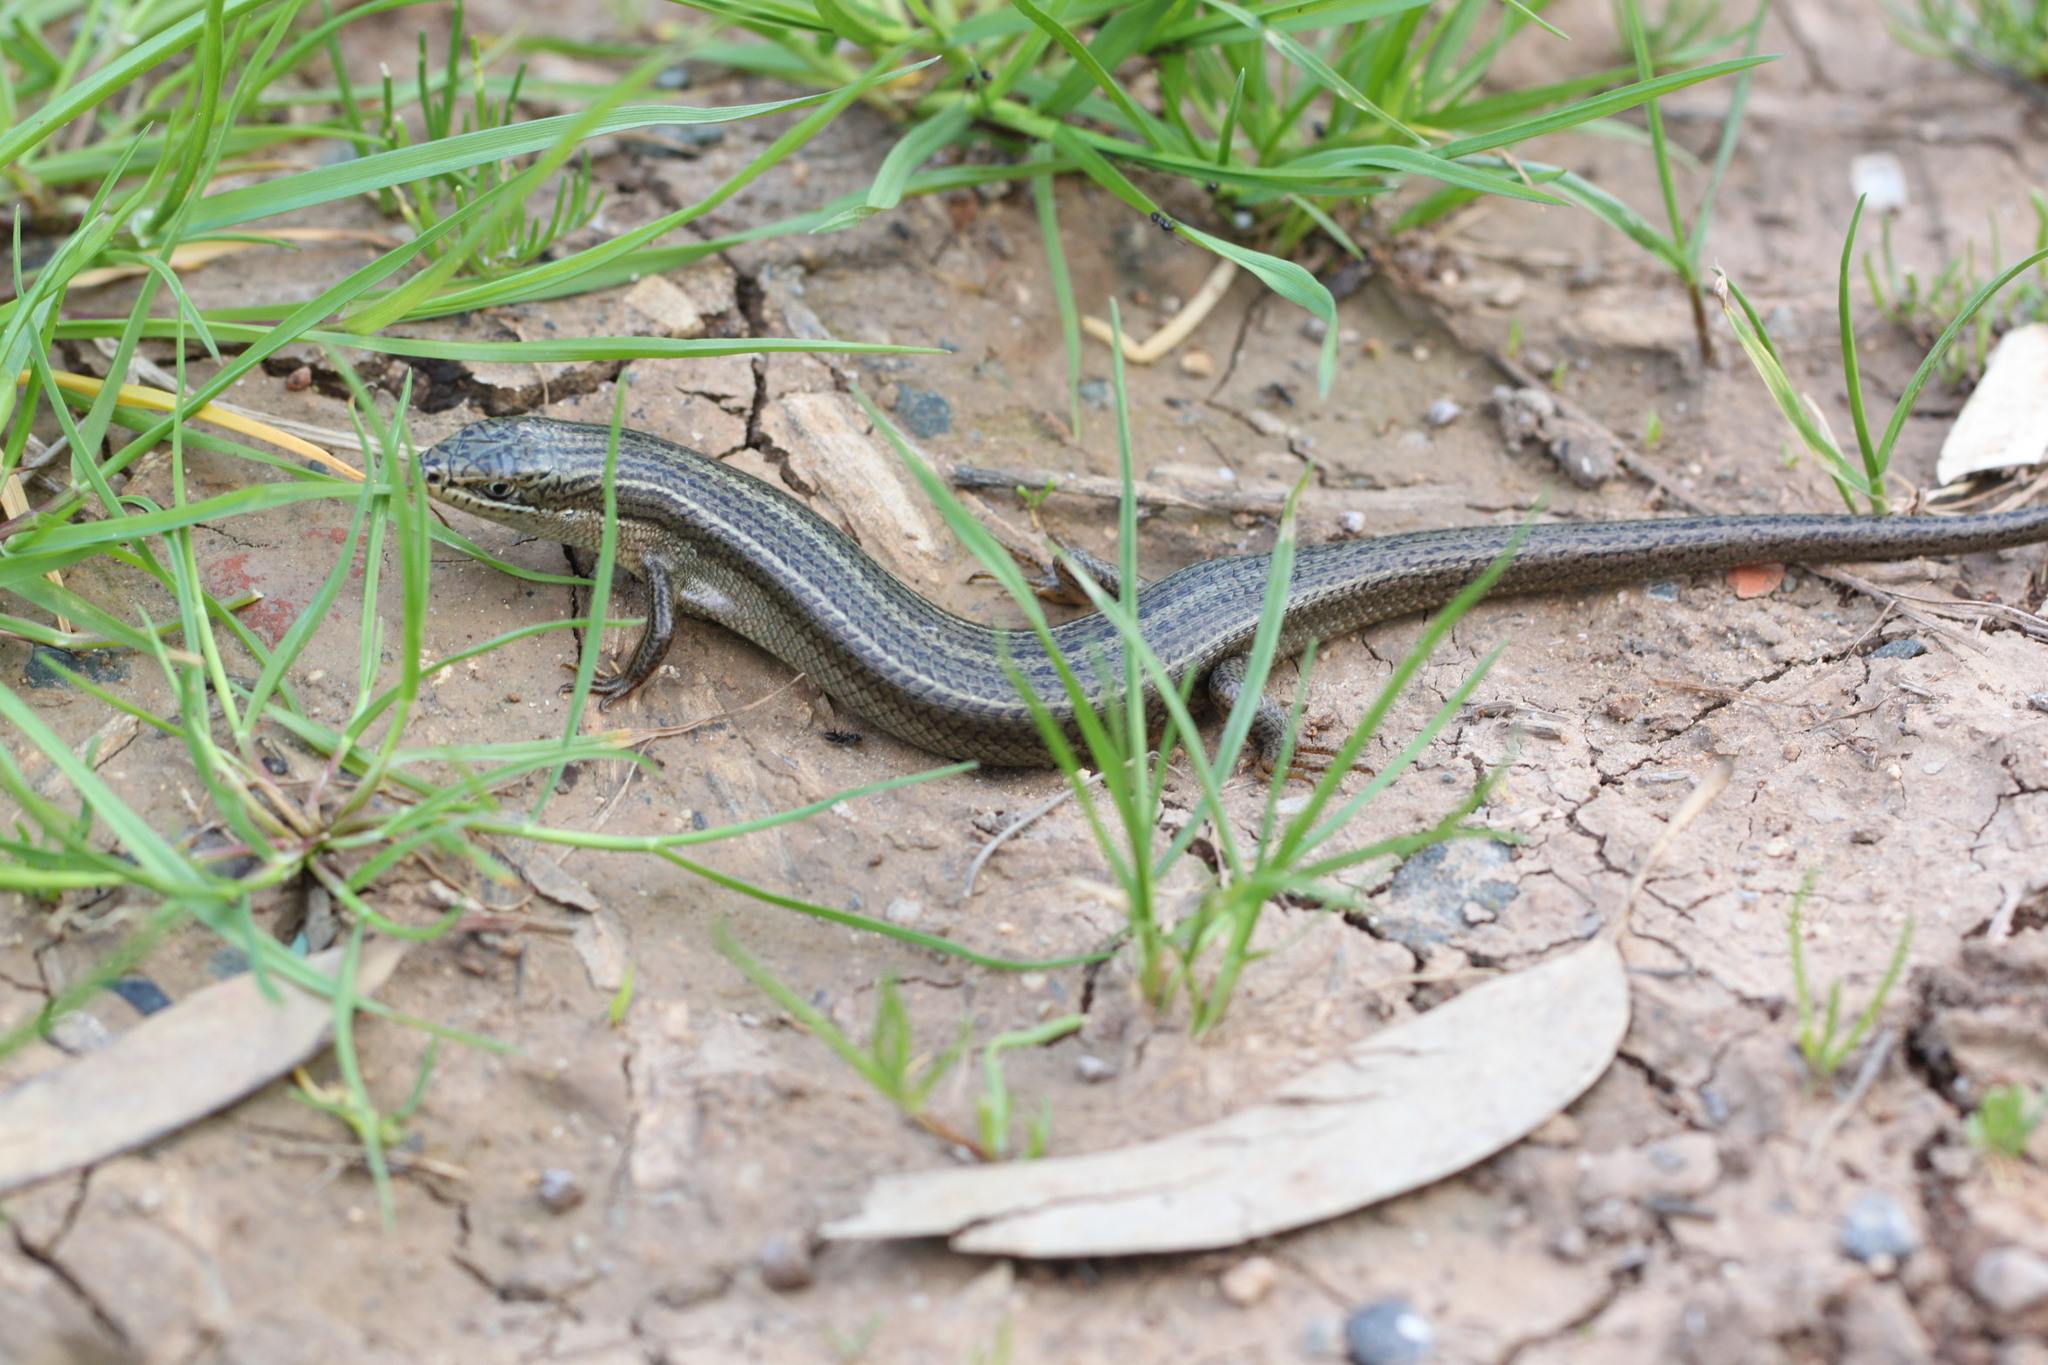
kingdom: Animalia
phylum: Chordata
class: Squamata
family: Scincidae
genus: Heremites
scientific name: Heremites vittatus
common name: Bridled mabuya
